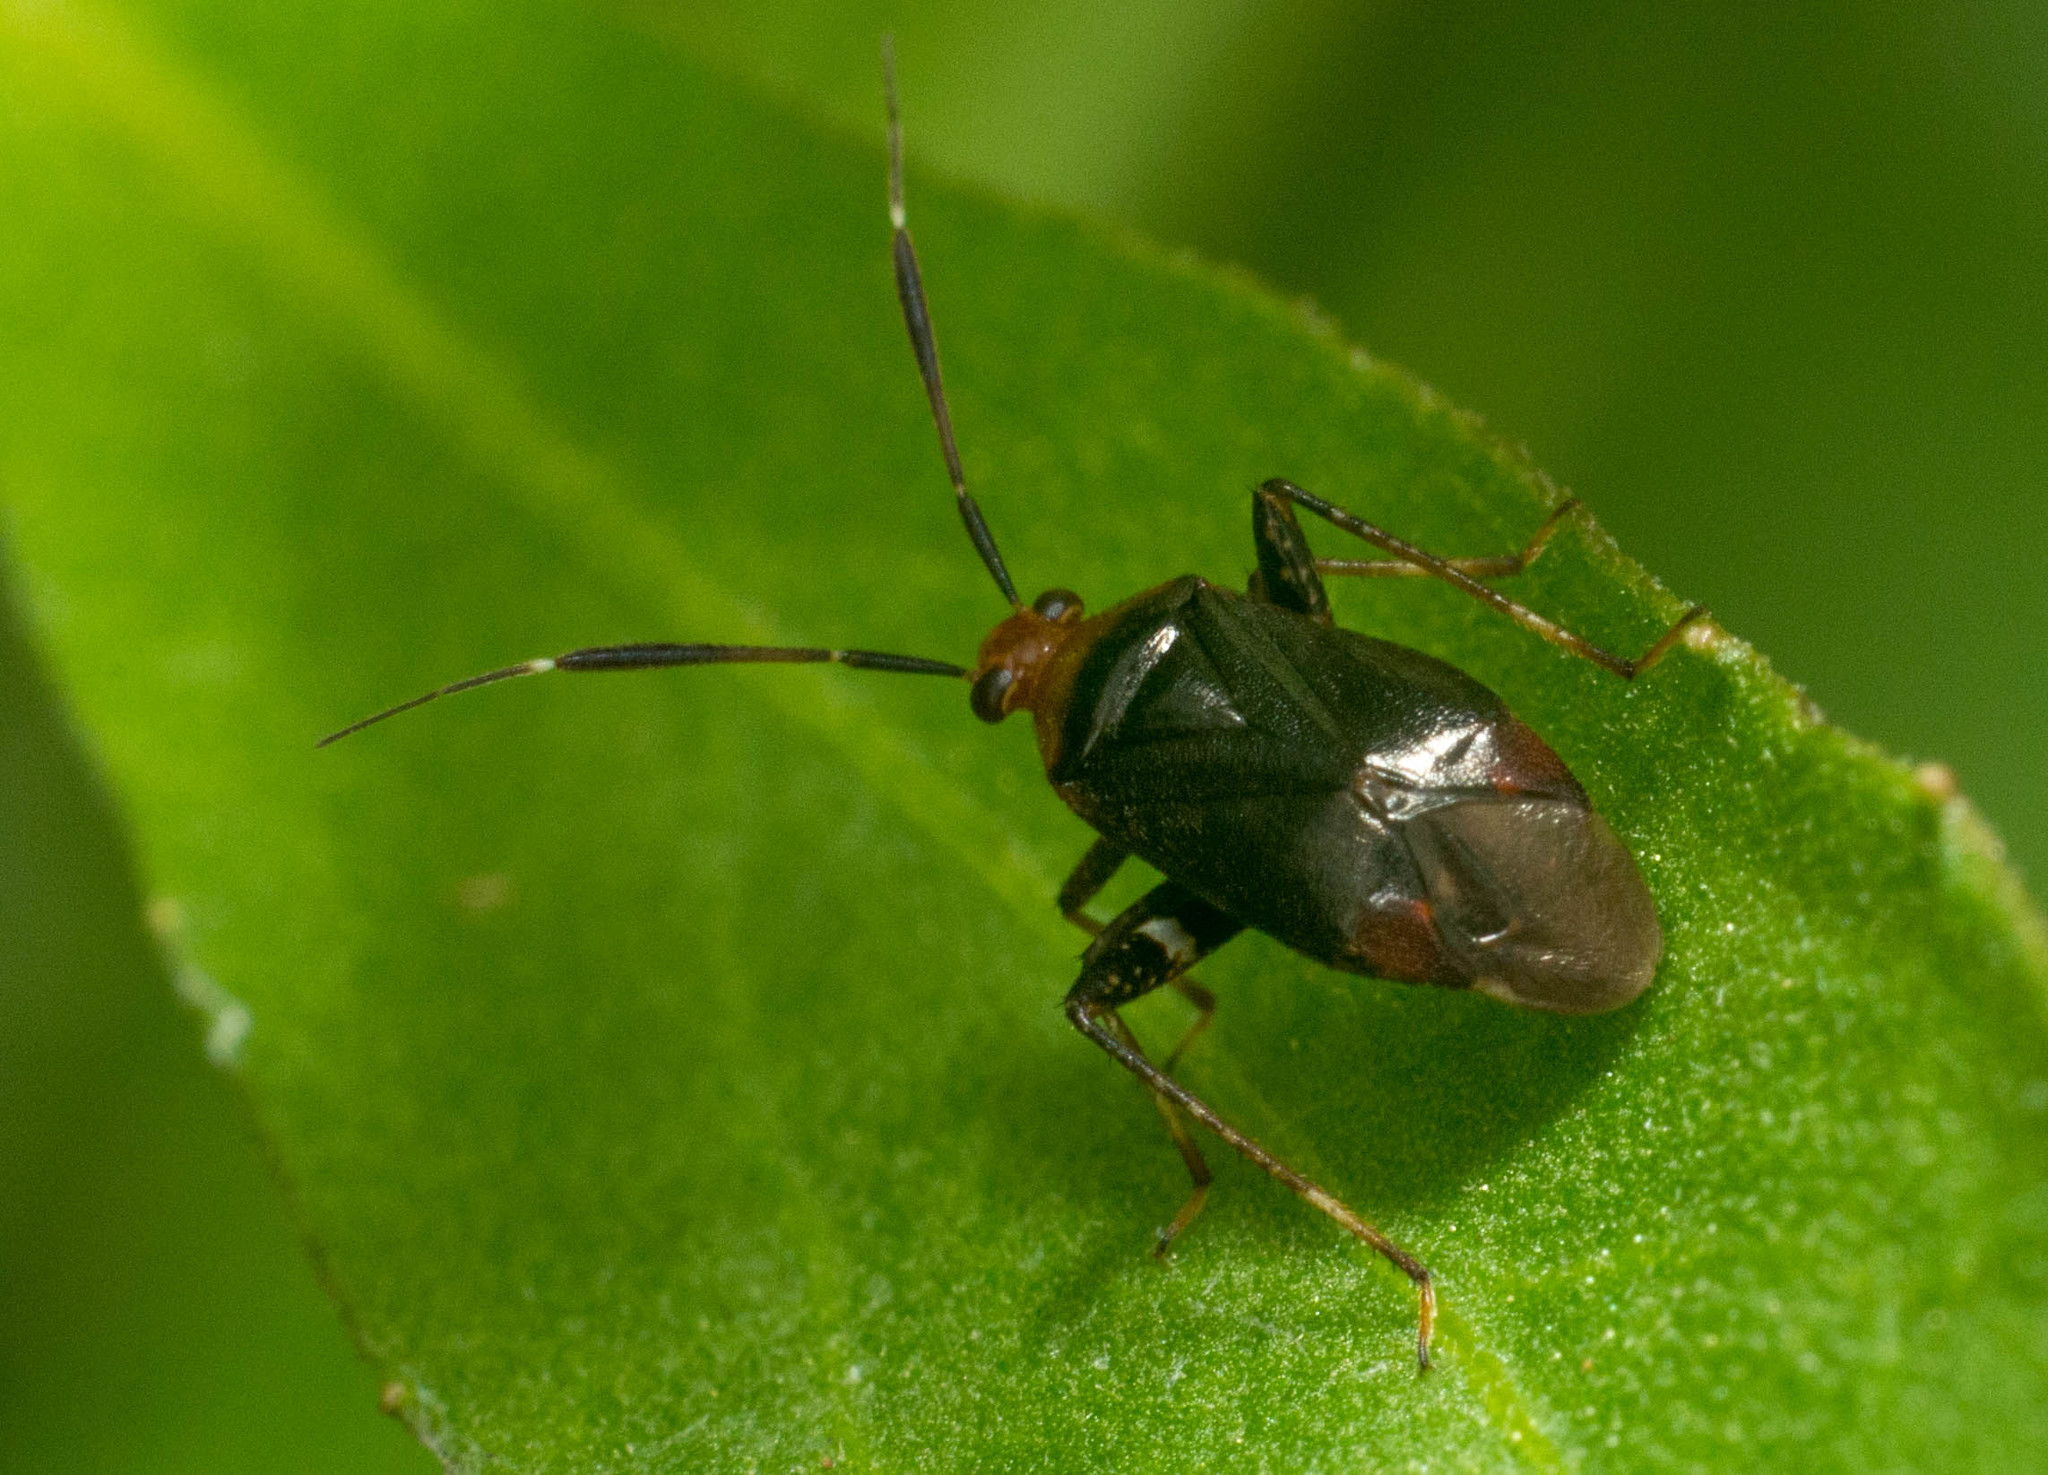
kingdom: Animalia
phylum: Arthropoda
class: Insecta
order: Hemiptera
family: Miridae
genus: Horciasinus
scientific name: Horciasinus argentinus
